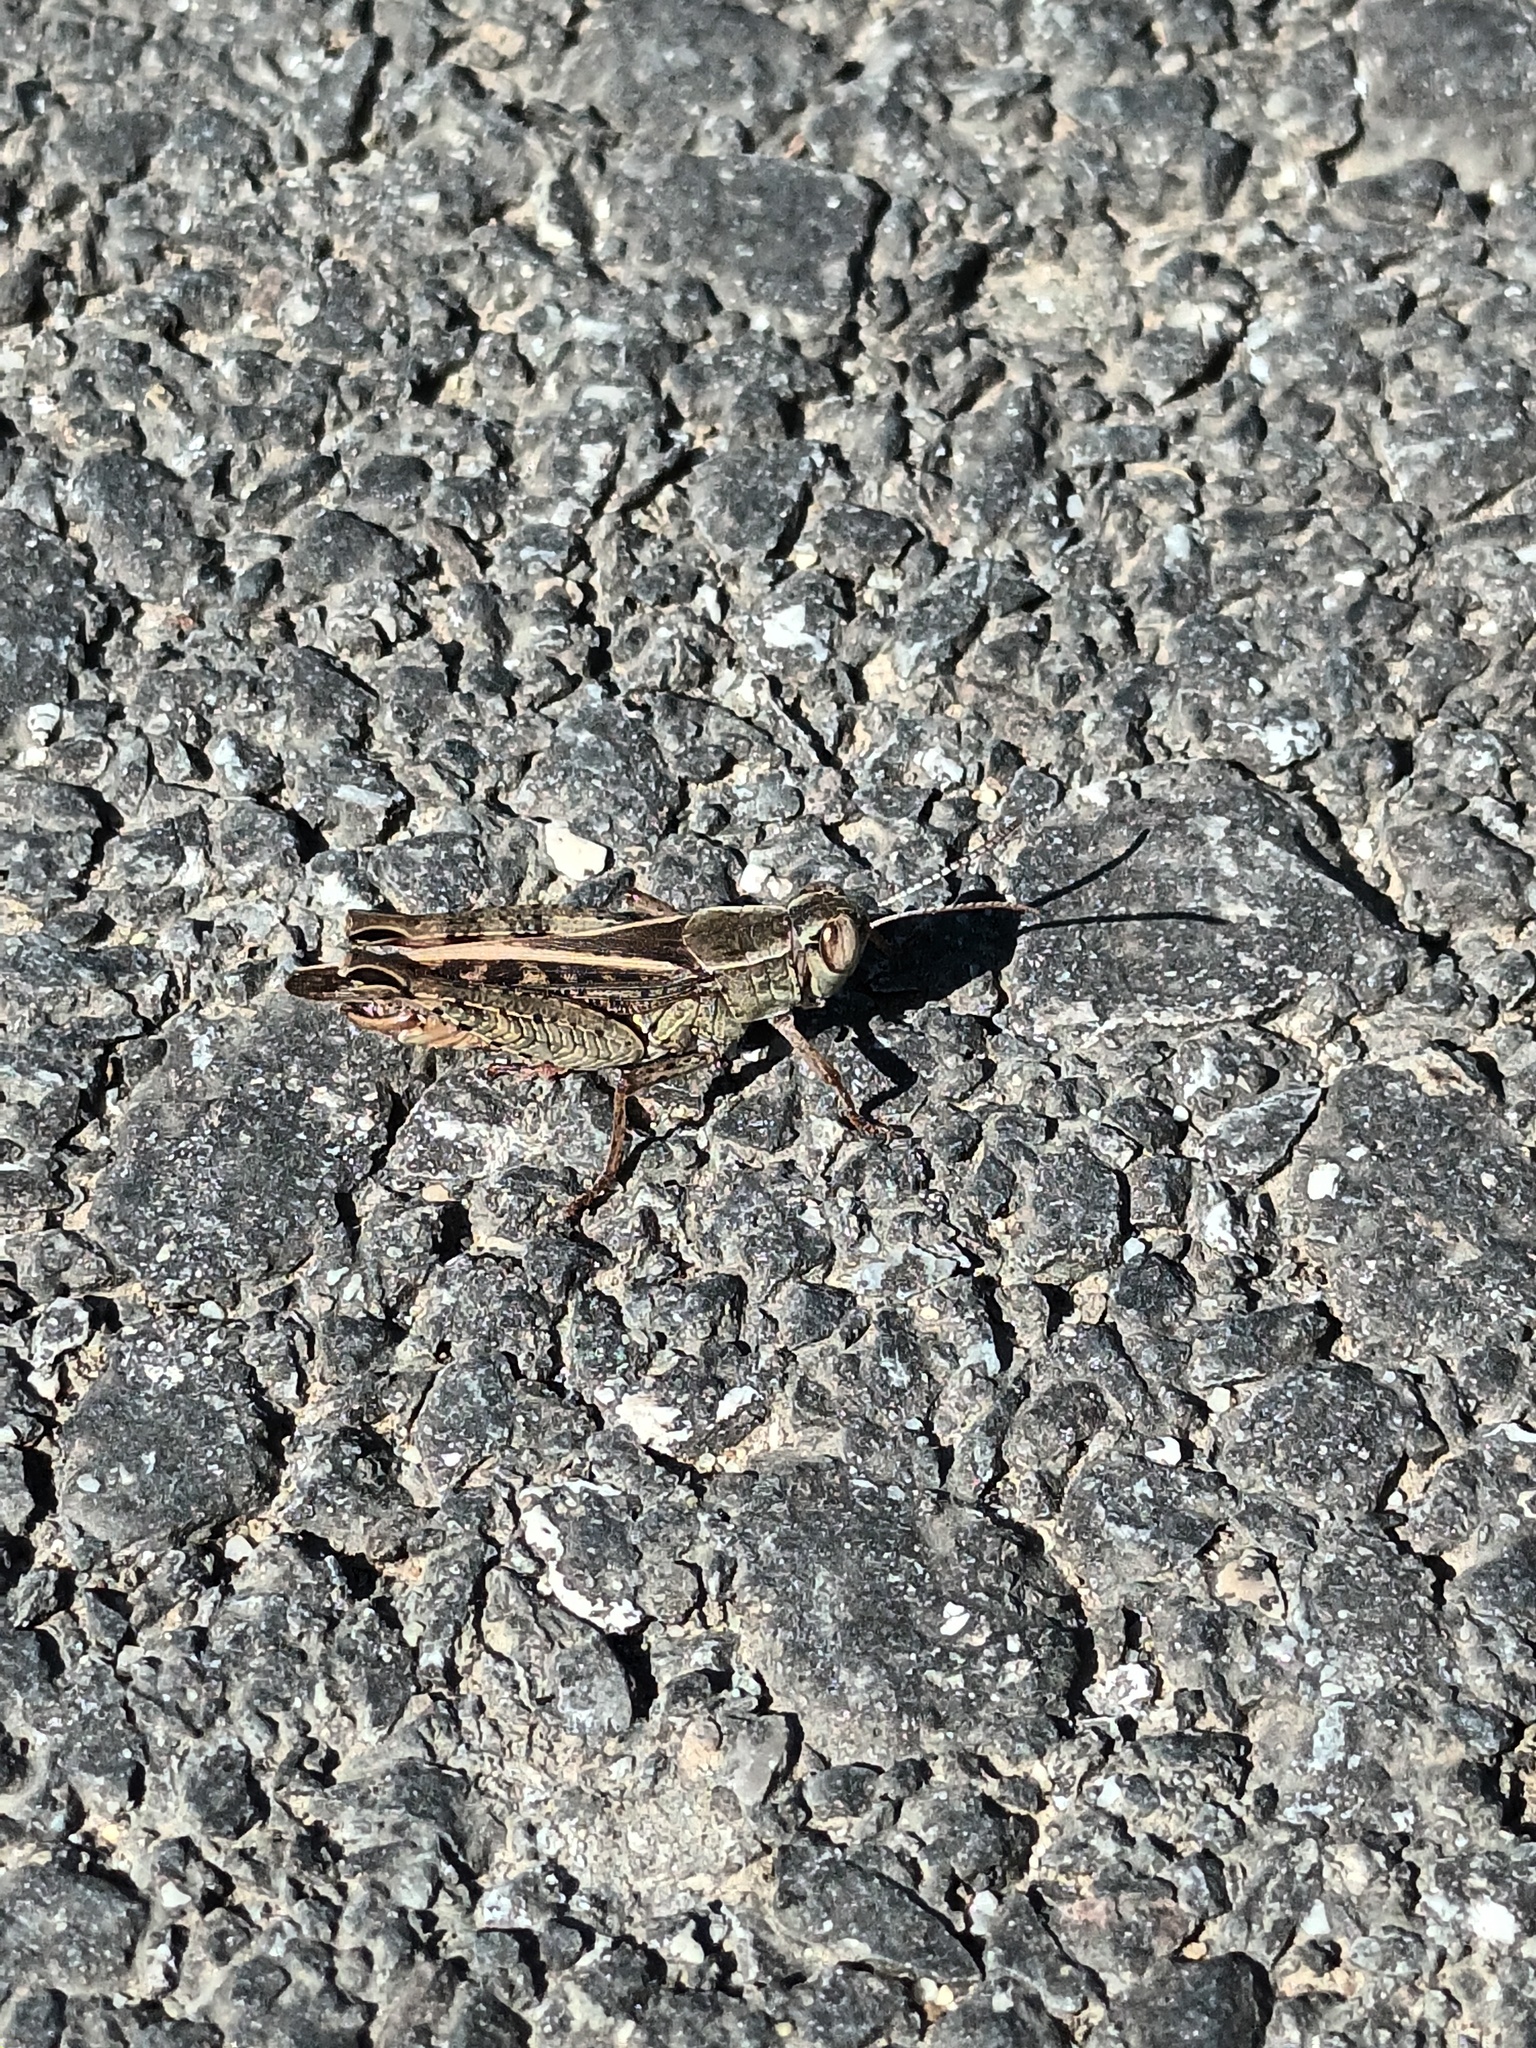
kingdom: Animalia
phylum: Arthropoda
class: Insecta
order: Orthoptera
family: Acrididae
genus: Calliptamus
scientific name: Calliptamus italicus
